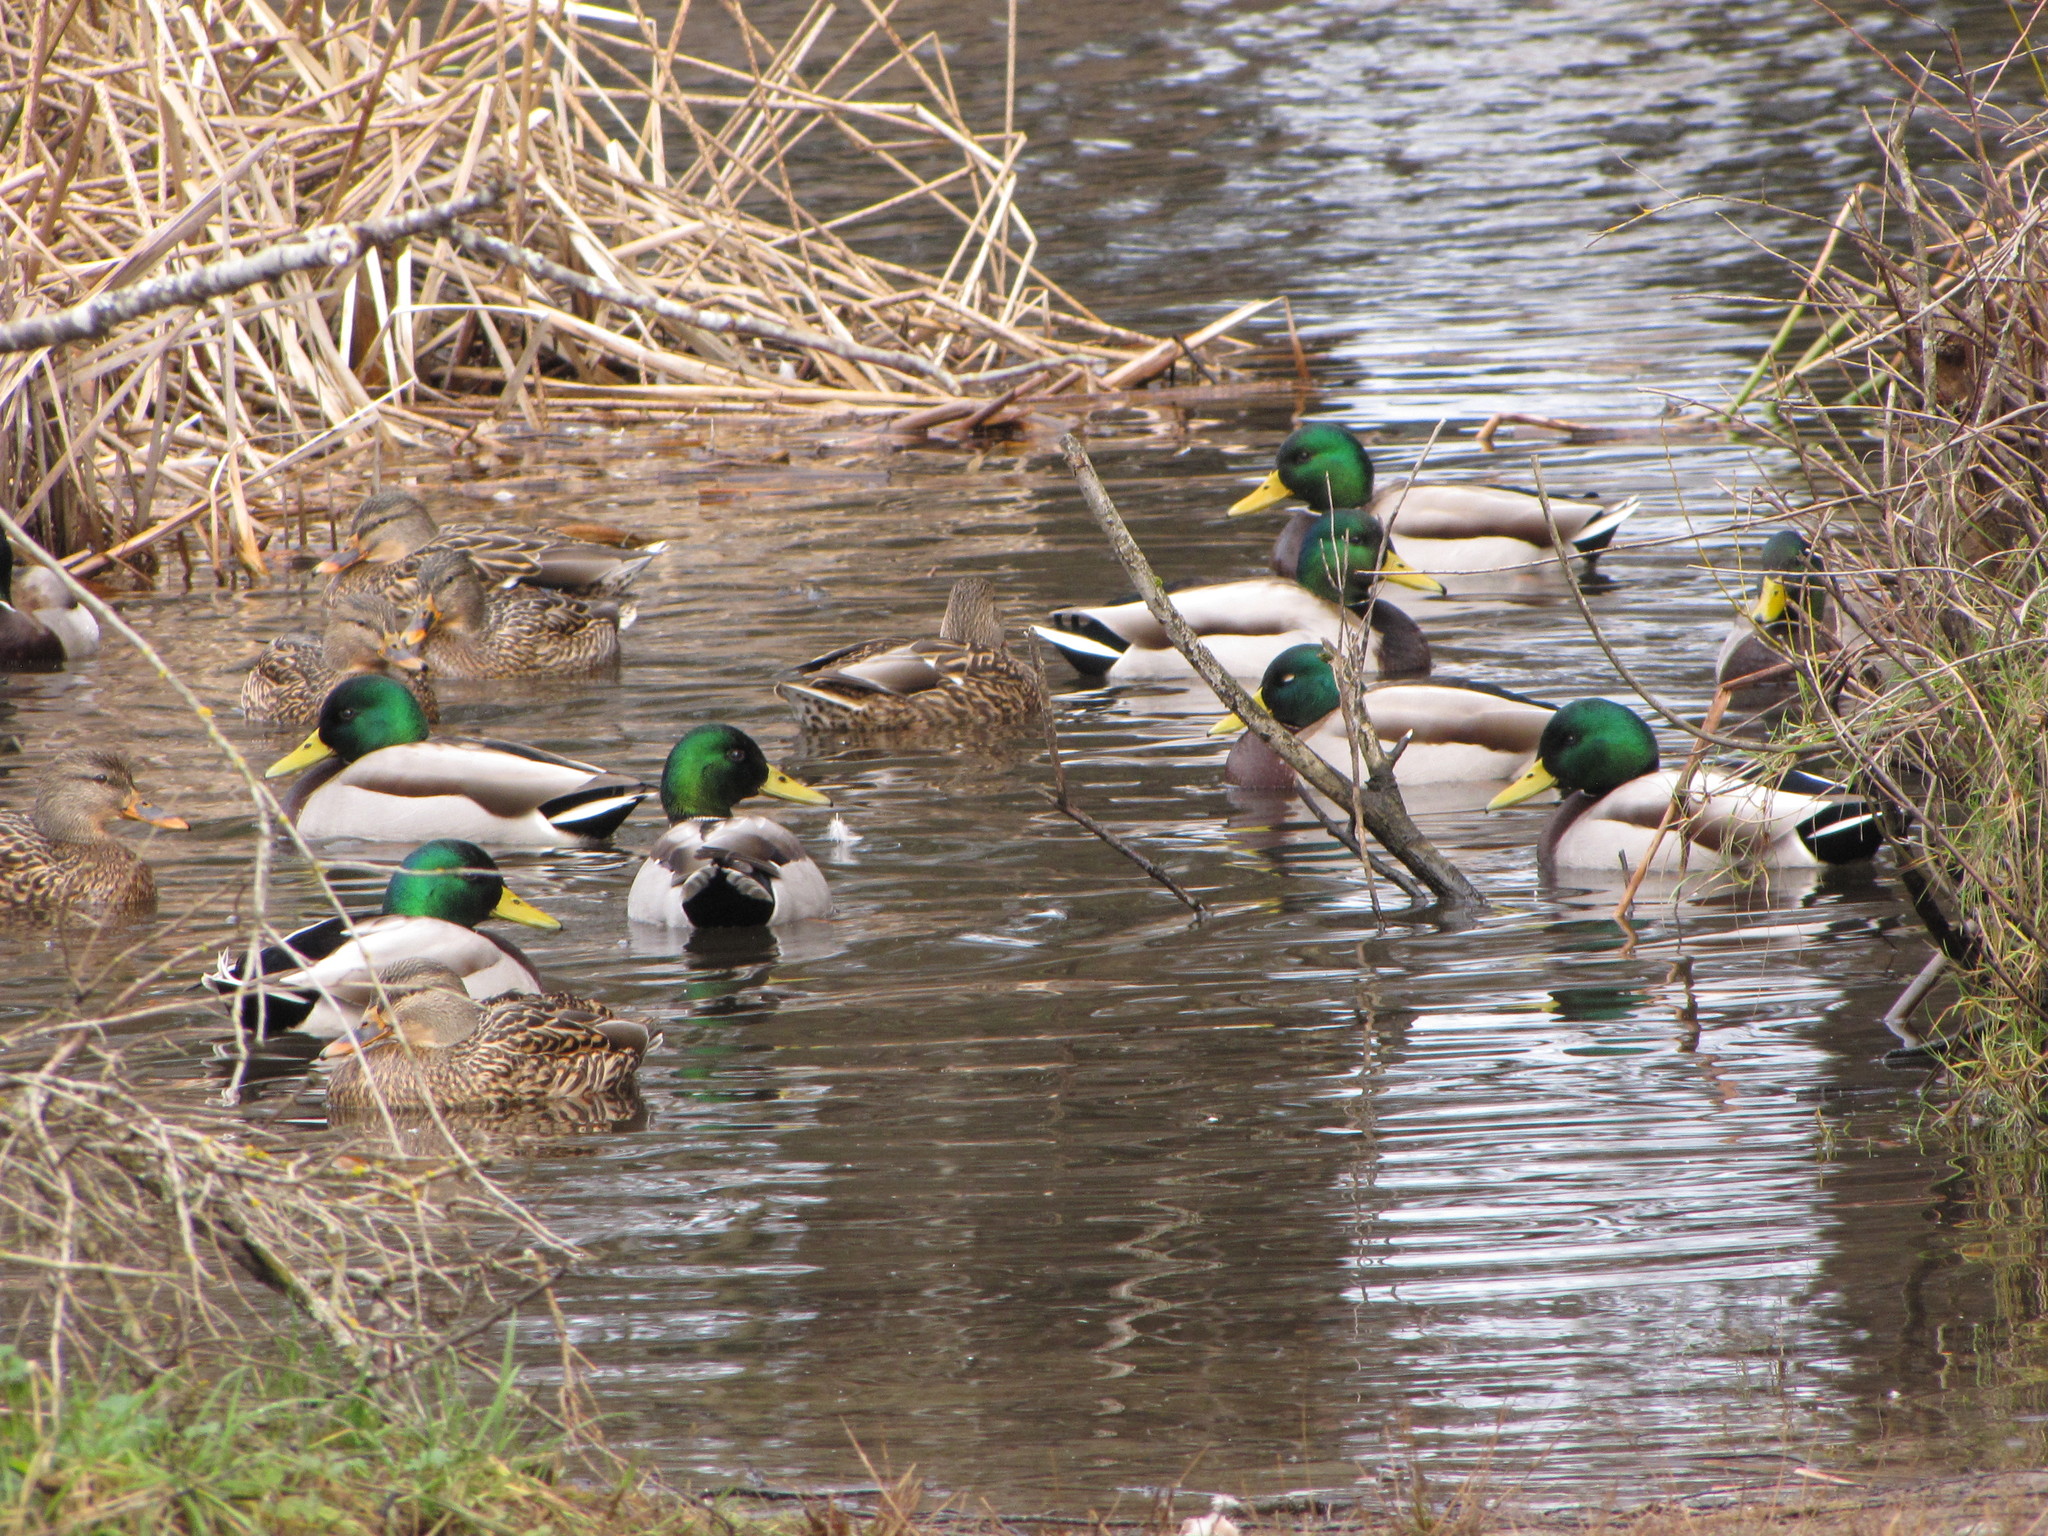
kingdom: Animalia
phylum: Chordata
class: Aves
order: Anseriformes
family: Anatidae
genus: Anas
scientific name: Anas platyrhynchos
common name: Mallard
